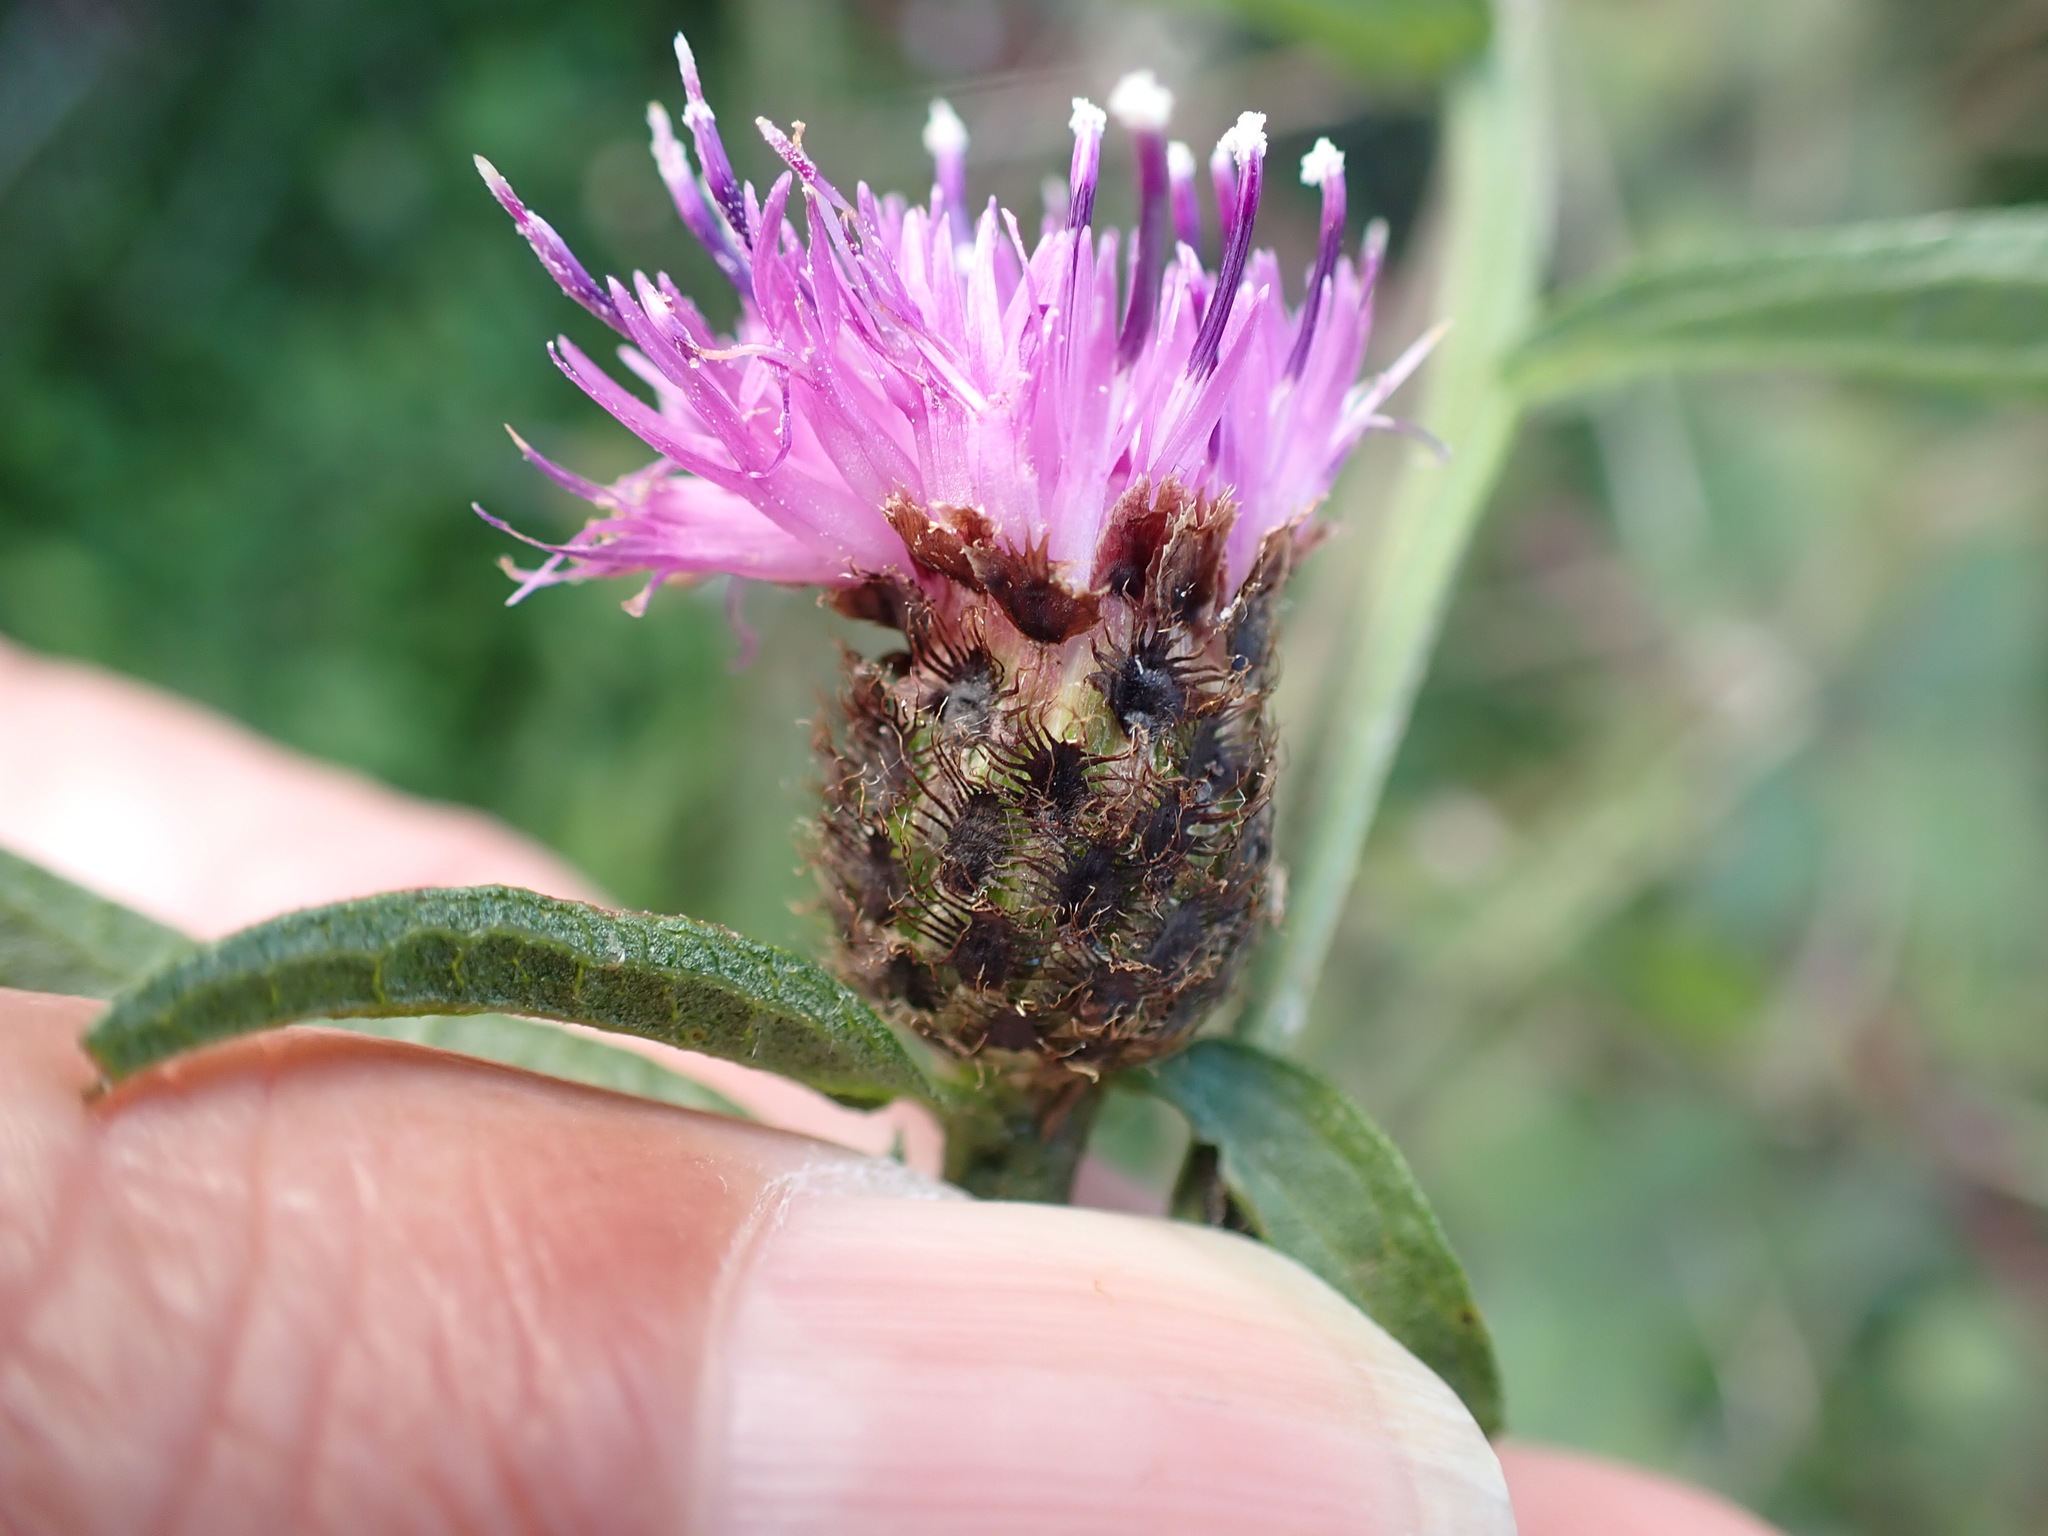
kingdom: Plantae
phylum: Tracheophyta
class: Magnoliopsida
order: Asterales
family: Asteraceae
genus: Centaurea
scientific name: Centaurea nigra
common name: Lesser knapweed
